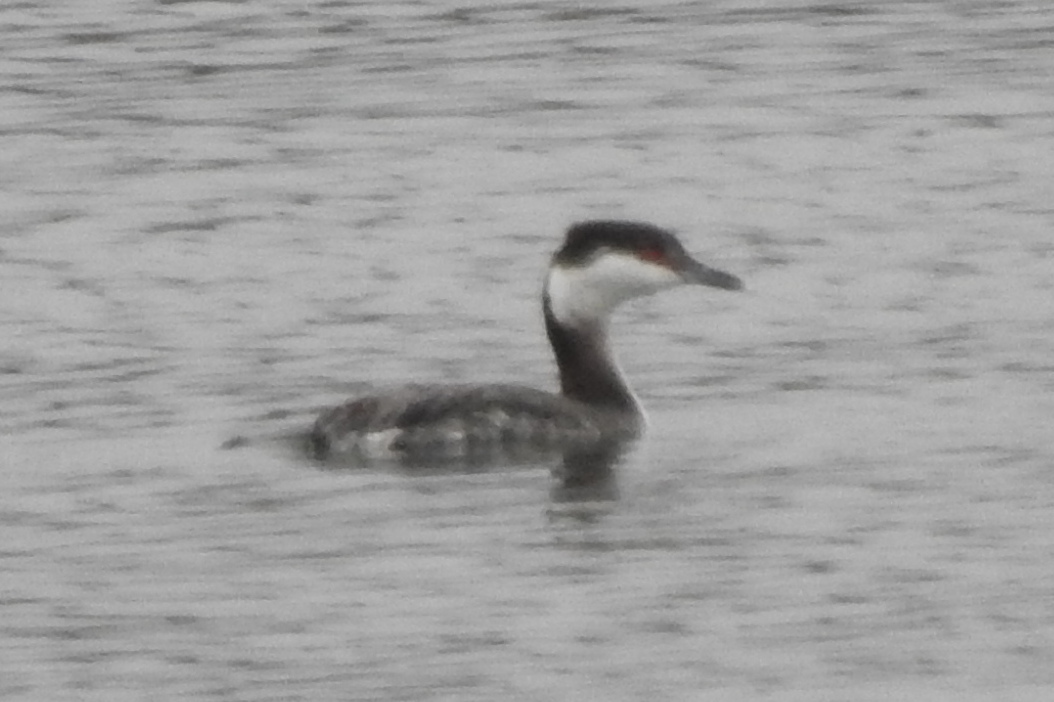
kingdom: Animalia
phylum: Chordata
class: Aves
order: Podicipediformes
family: Podicipedidae
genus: Podiceps
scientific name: Podiceps auritus
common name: Horned grebe
